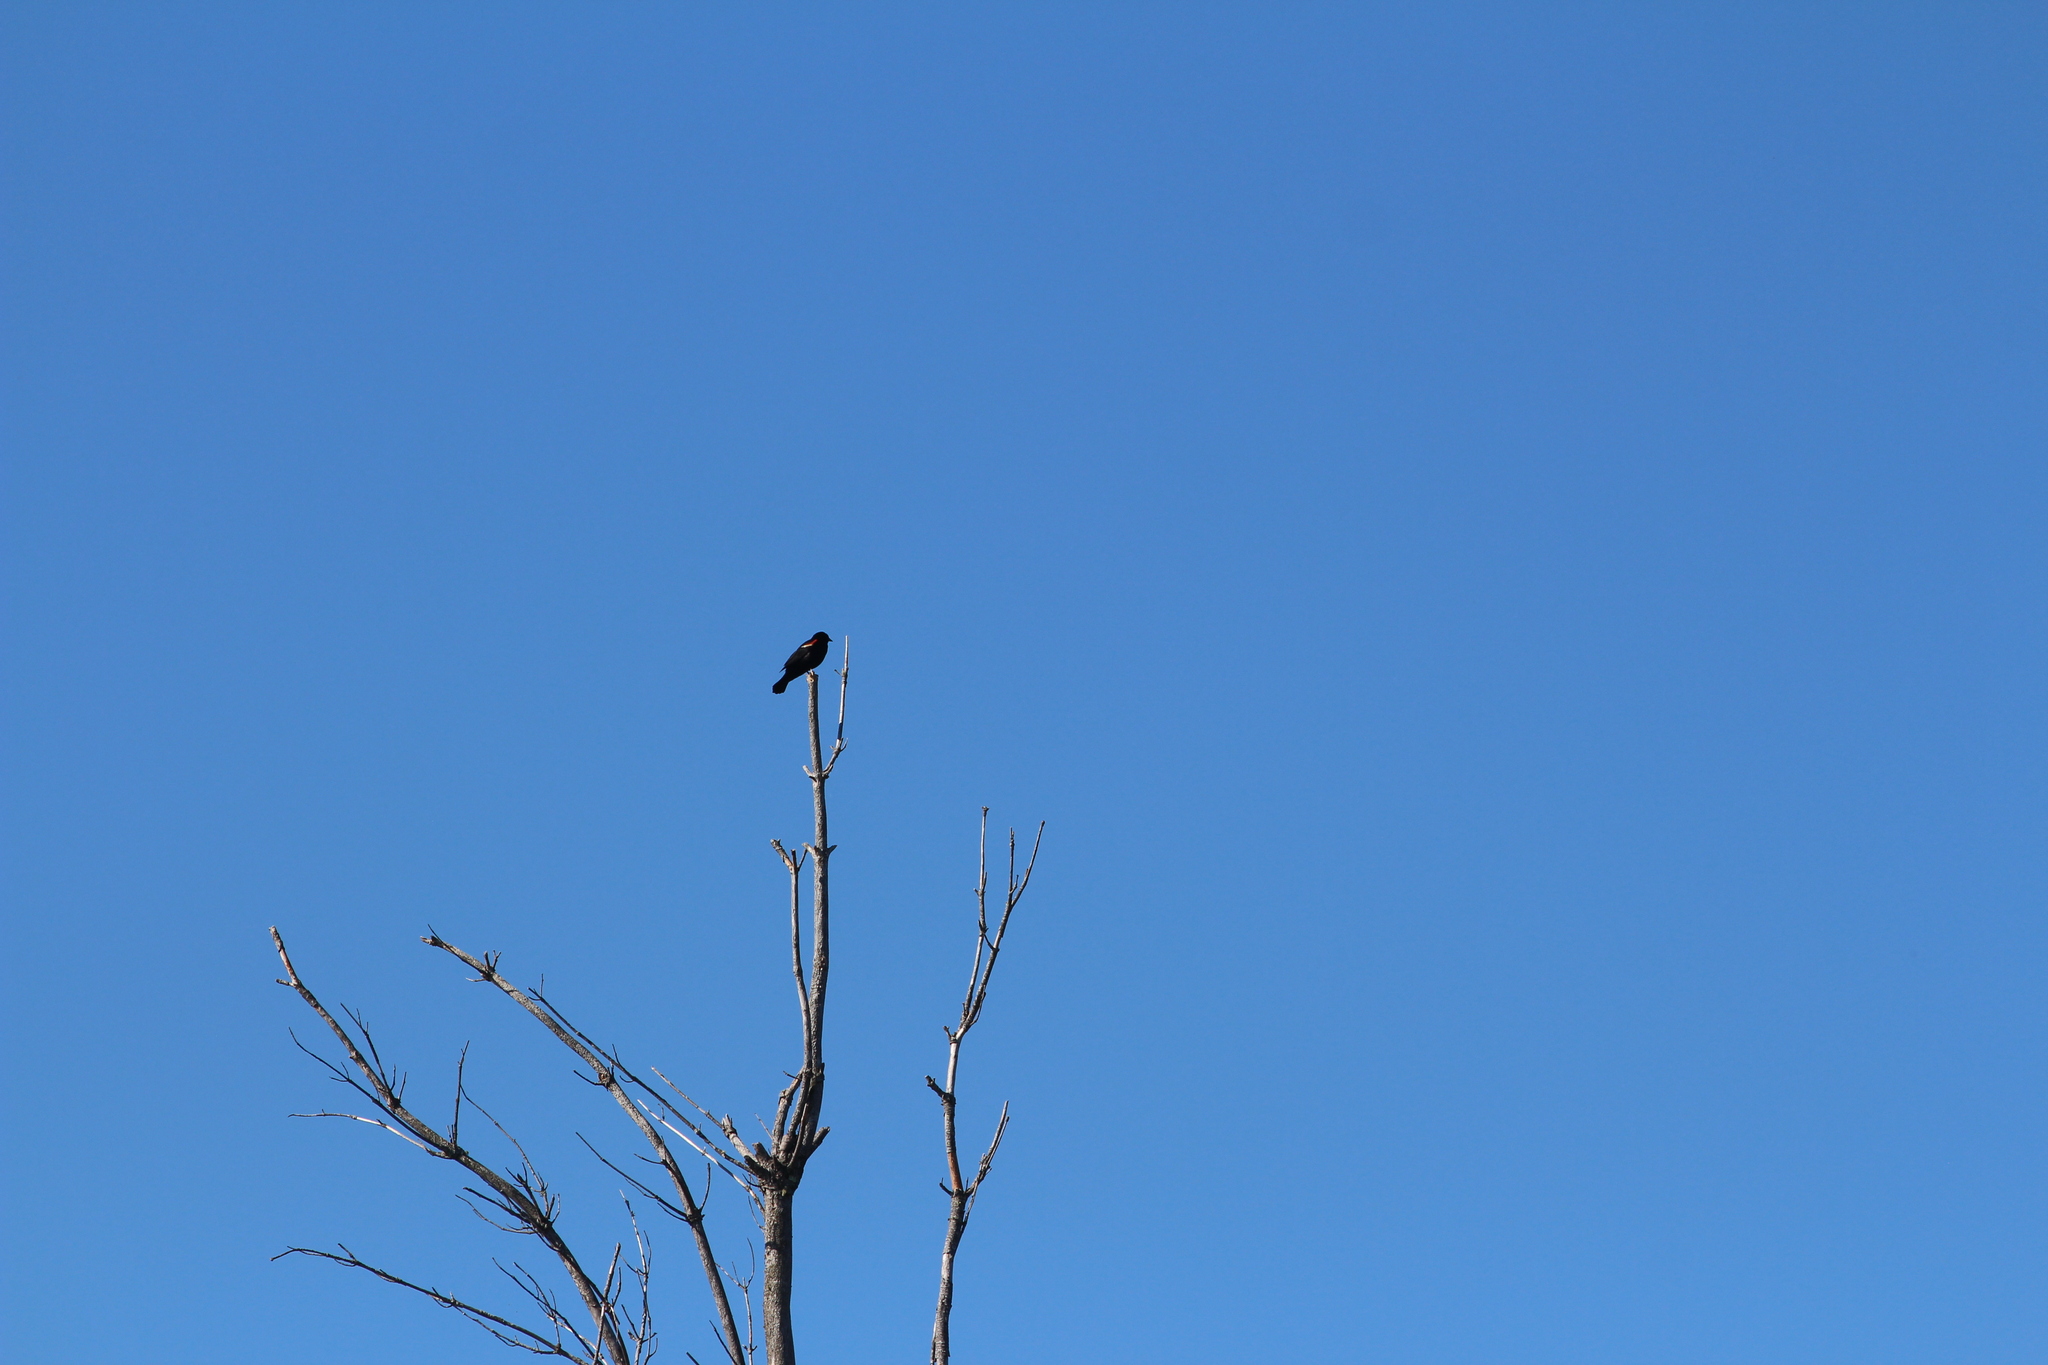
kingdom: Animalia
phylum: Chordata
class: Aves
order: Passeriformes
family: Icteridae
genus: Agelaius
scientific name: Agelaius phoeniceus
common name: Red-winged blackbird
